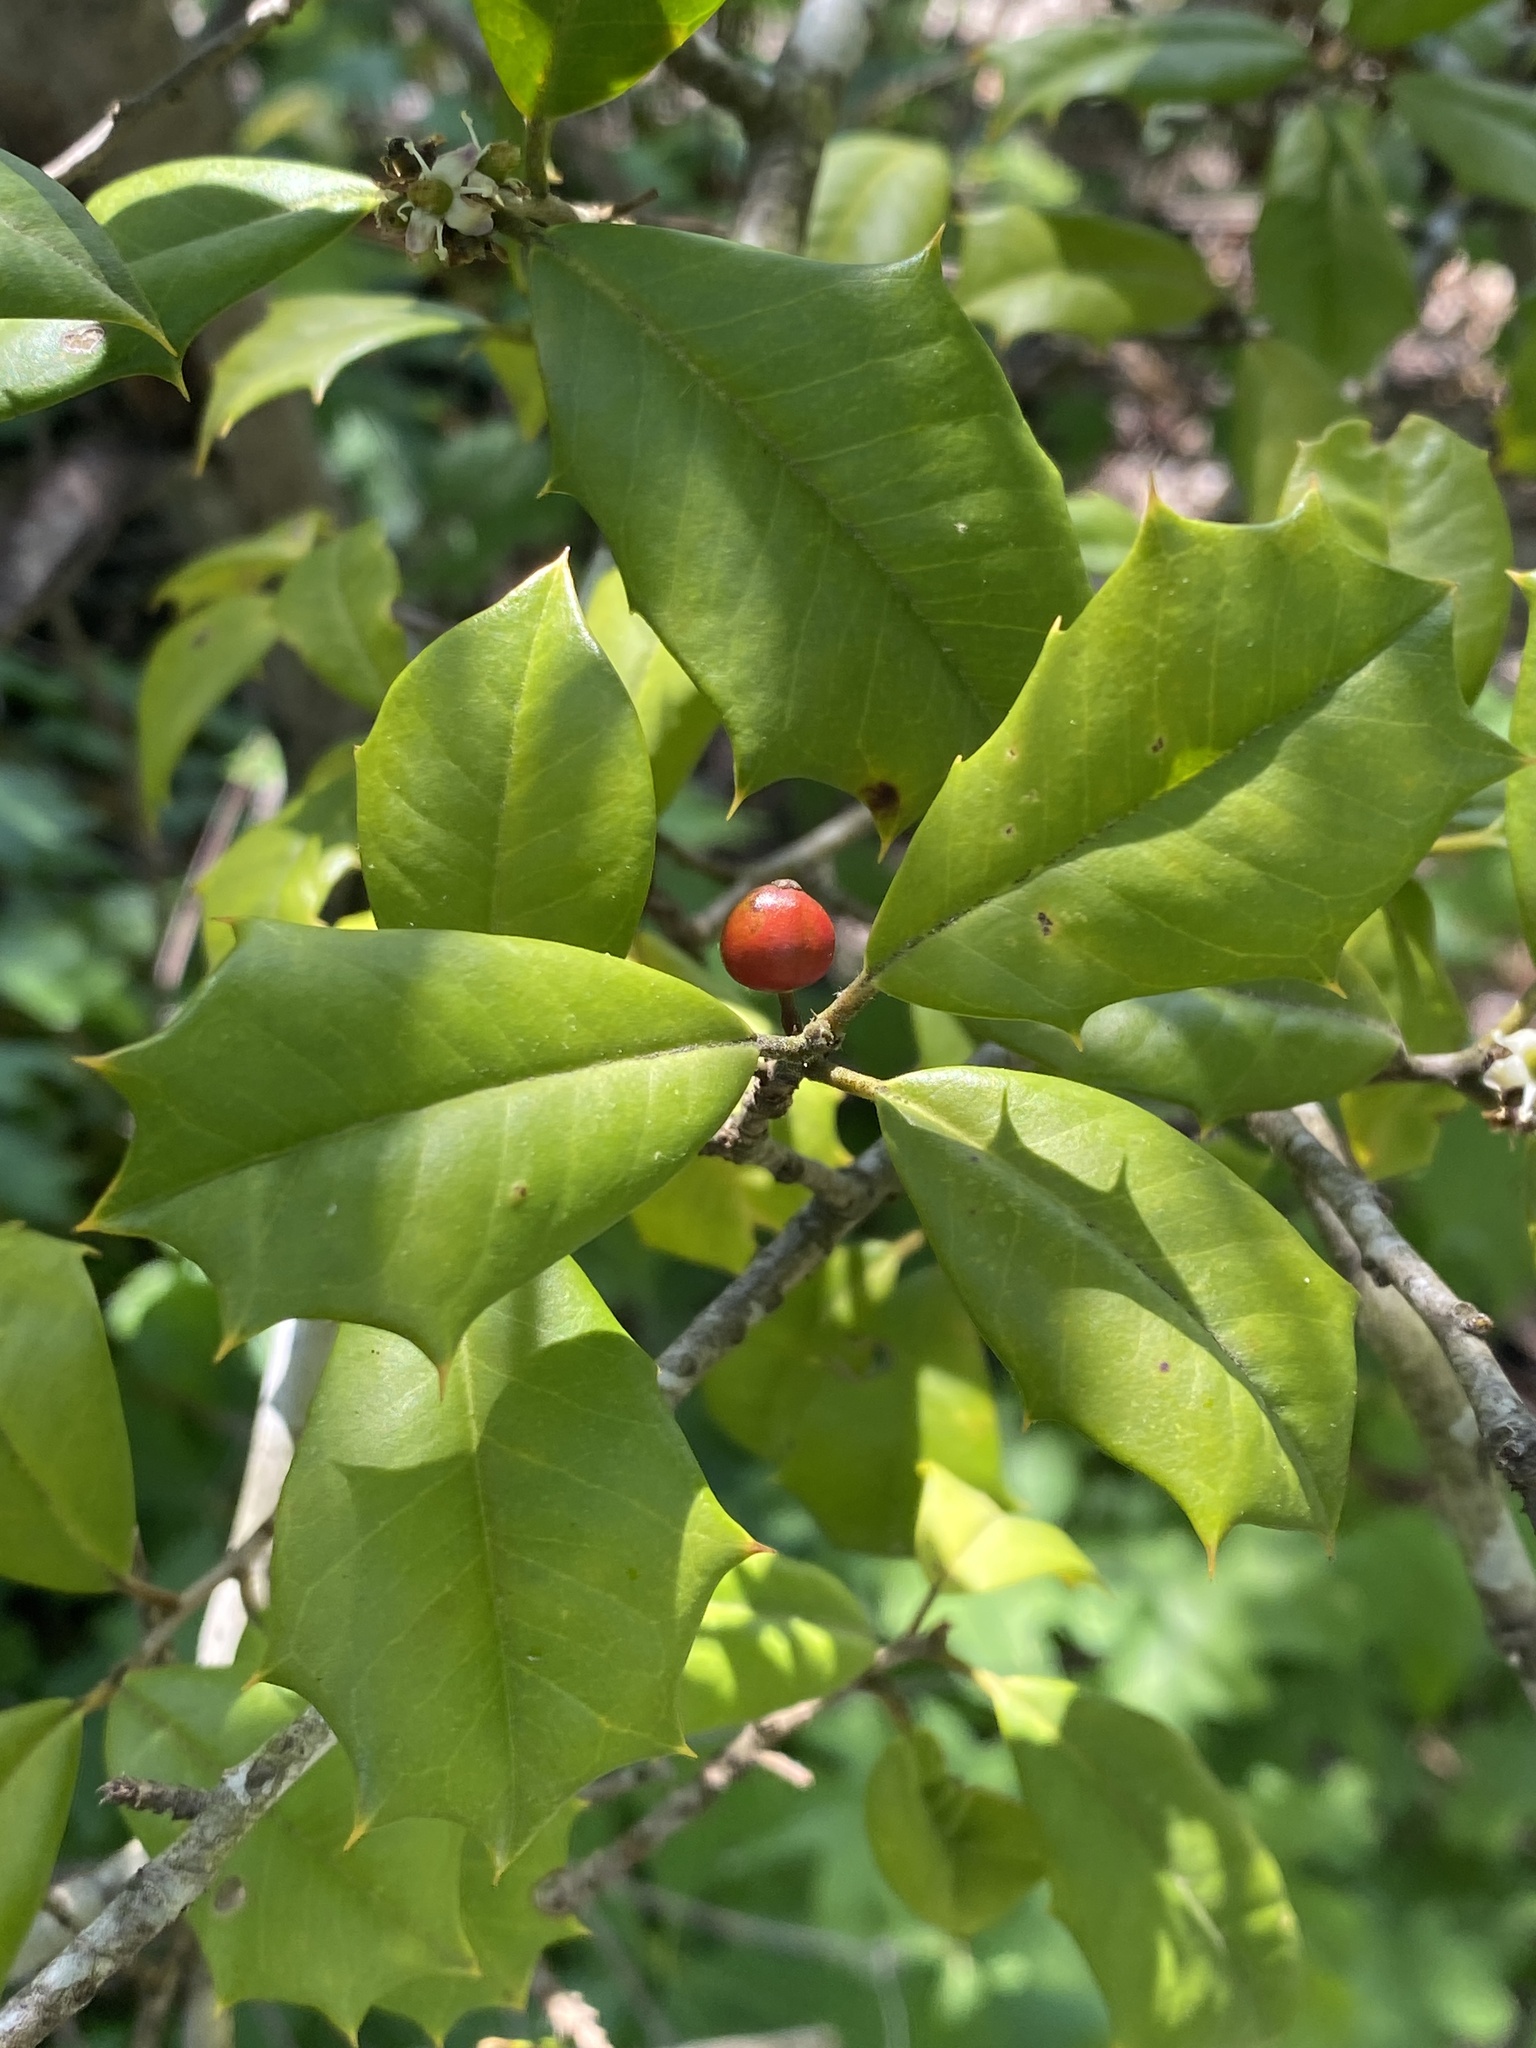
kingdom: Plantae
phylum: Tracheophyta
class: Magnoliopsida
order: Aquifoliales
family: Aquifoliaceae
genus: Ilex
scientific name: Ilex opaca
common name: American holly
